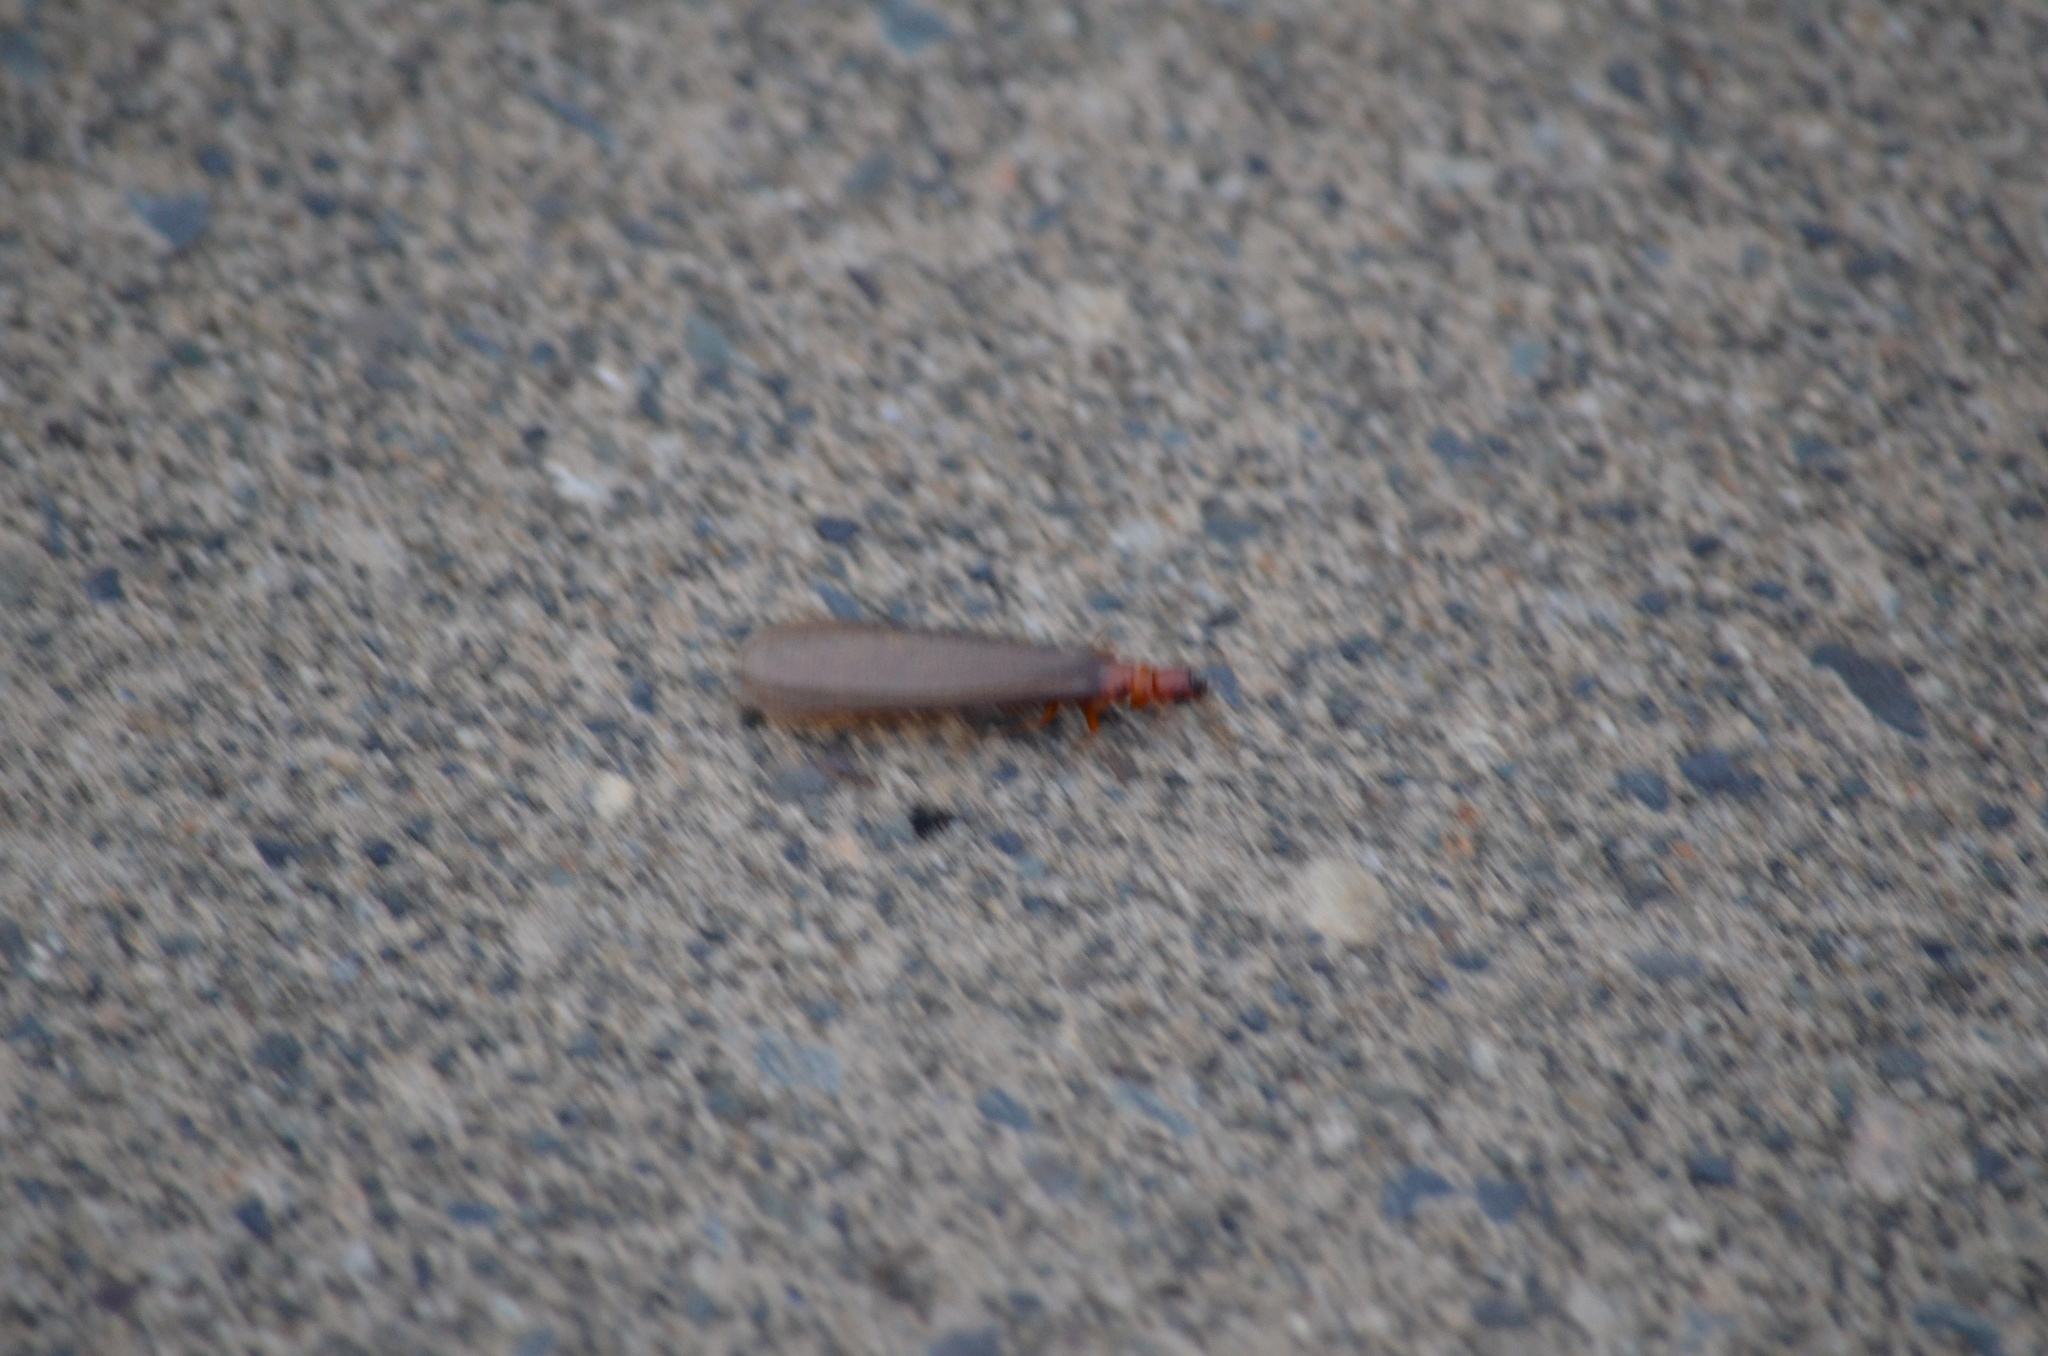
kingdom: Animalia
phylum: Arthropoda
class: Insecta
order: Blattodea
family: Archotermopsidae
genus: Zootermopsis
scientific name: Zootermopsis angusticollis
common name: Rottenwood termite
